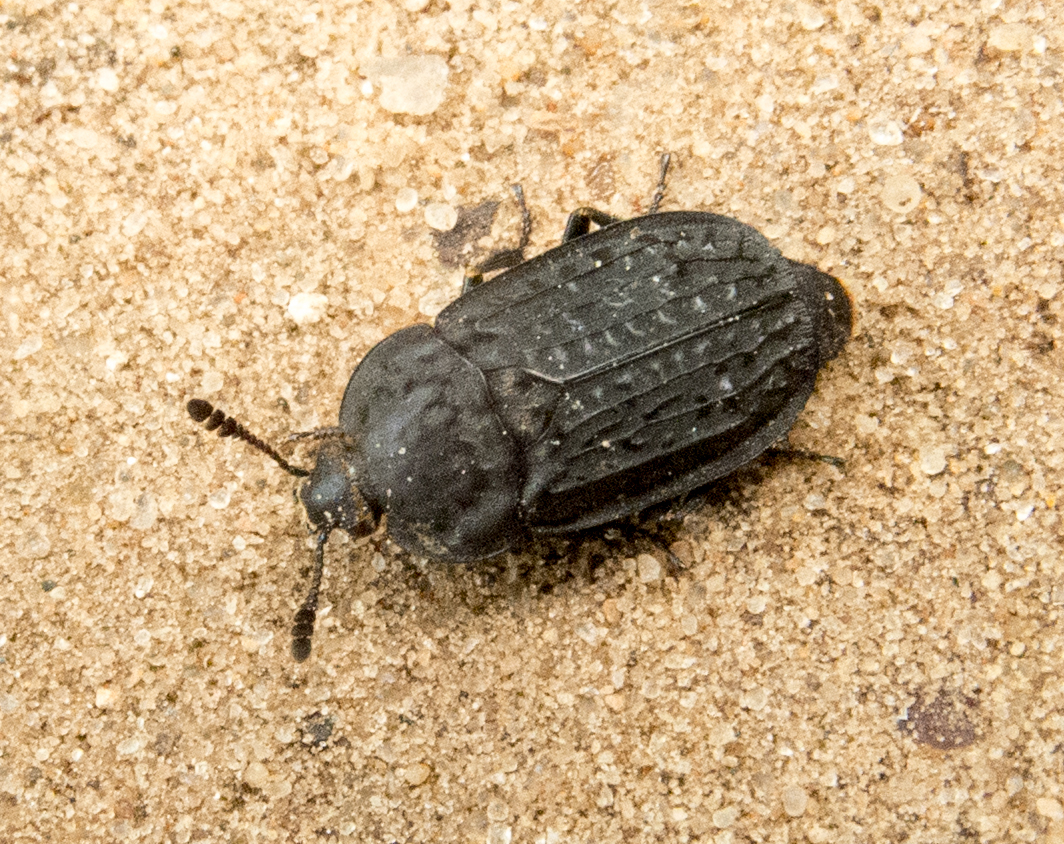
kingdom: Animalia
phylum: Arthropoda
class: Insecta
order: Coleoptera
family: Staphylinidae
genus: Thanatophilus
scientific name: Thanatophilus rugosus
